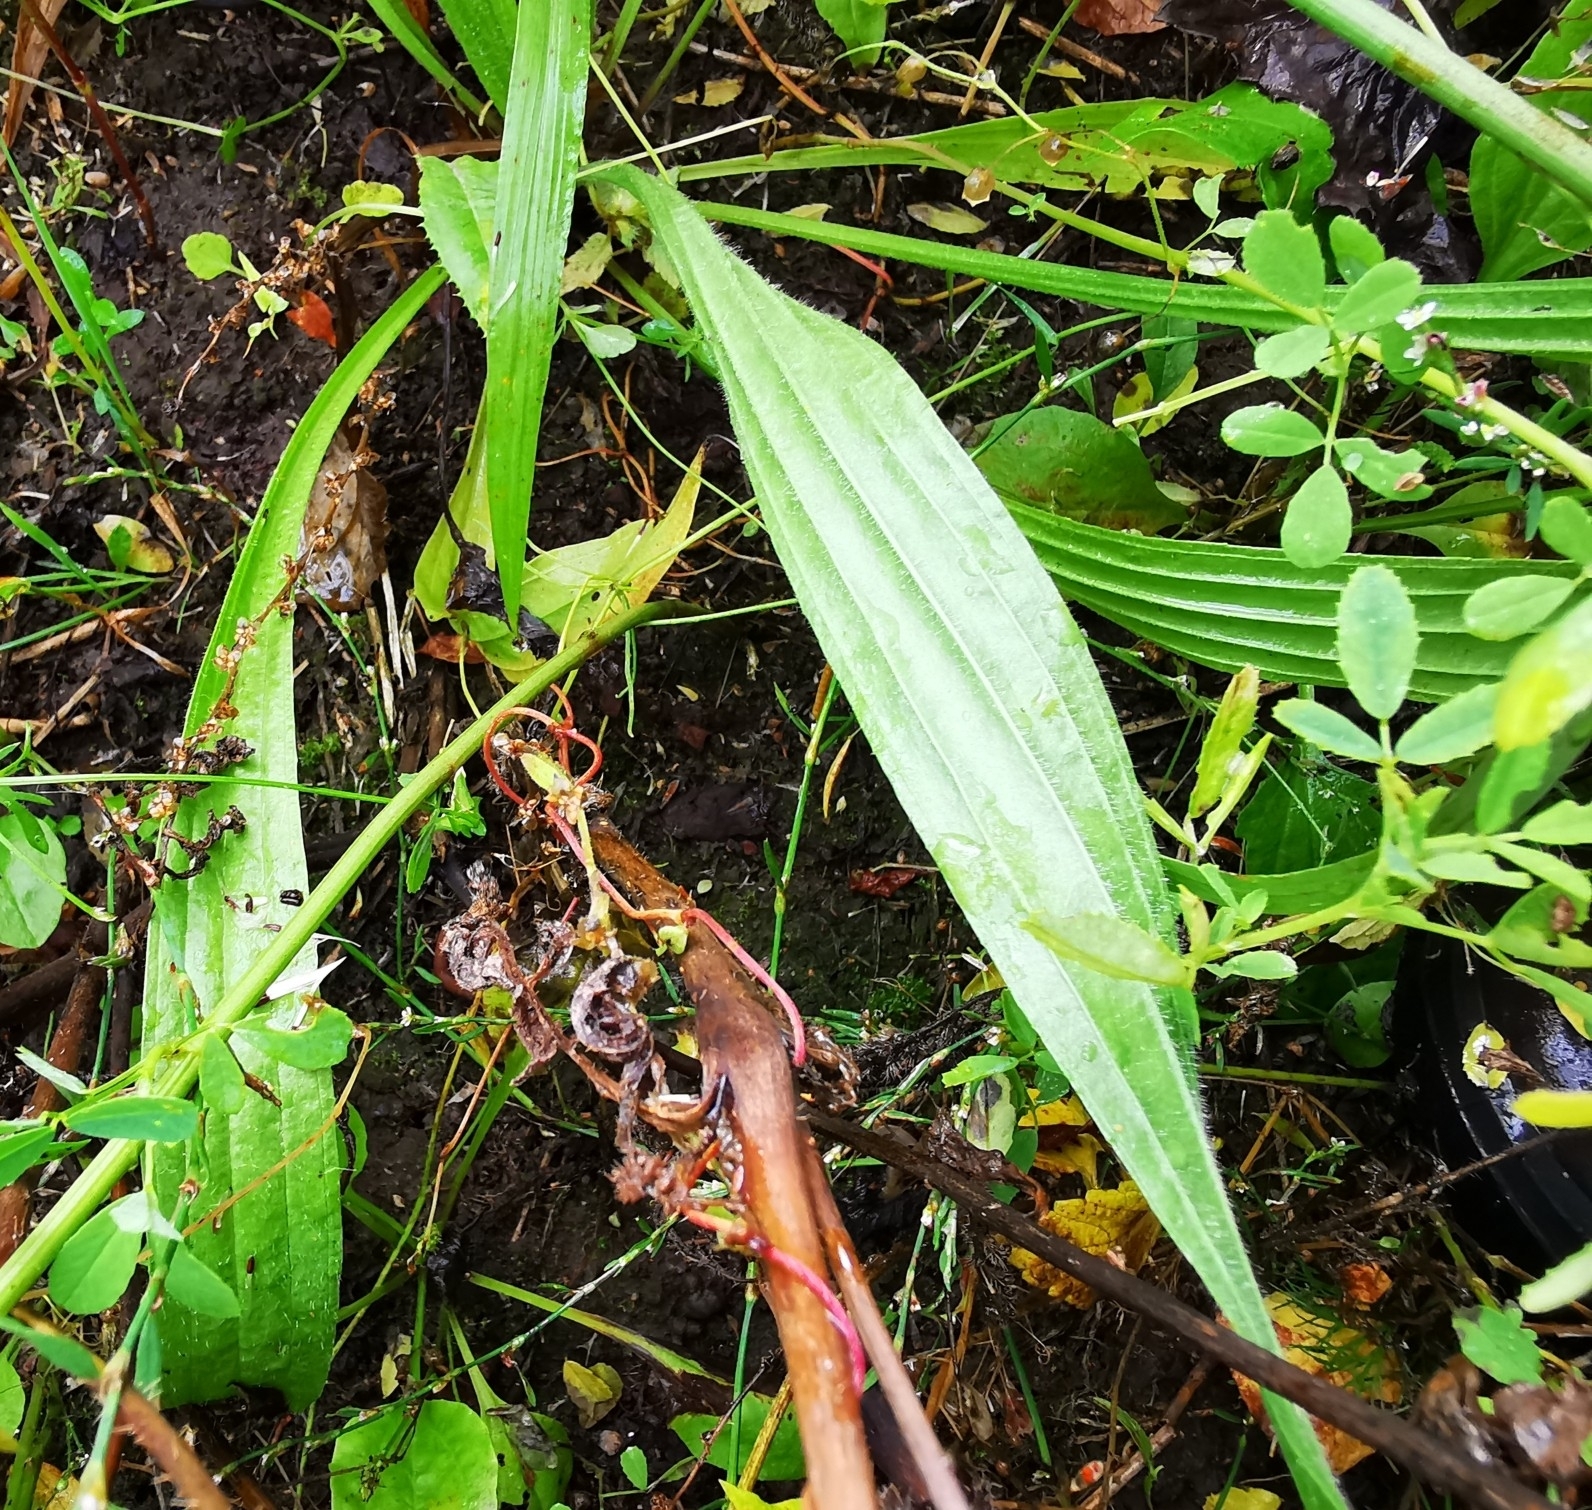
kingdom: Plantae
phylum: Tracheophyta
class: Magnoliopsida
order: Lamiales
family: Plantaginaceae
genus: Plantago
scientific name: Plantago lanceolata
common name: Ribwort plantain
